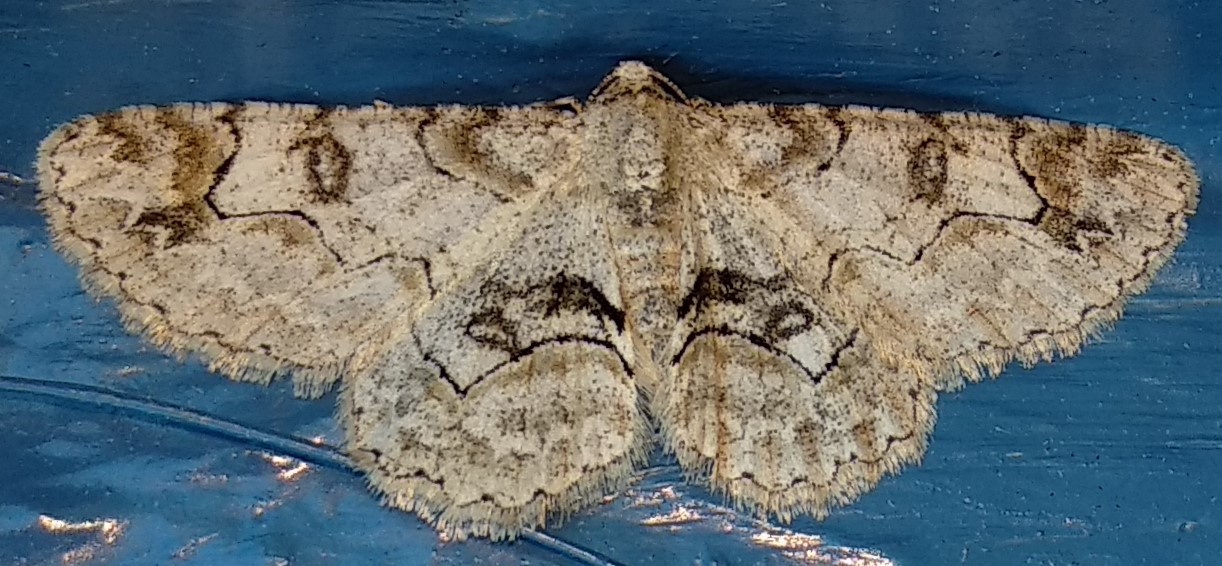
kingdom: Animalia
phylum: Arthropoda
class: Insecta
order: Lepidoptera
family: Geometridae
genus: Iridopsis
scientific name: Iridopsis larvaria
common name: Bent-line gray
